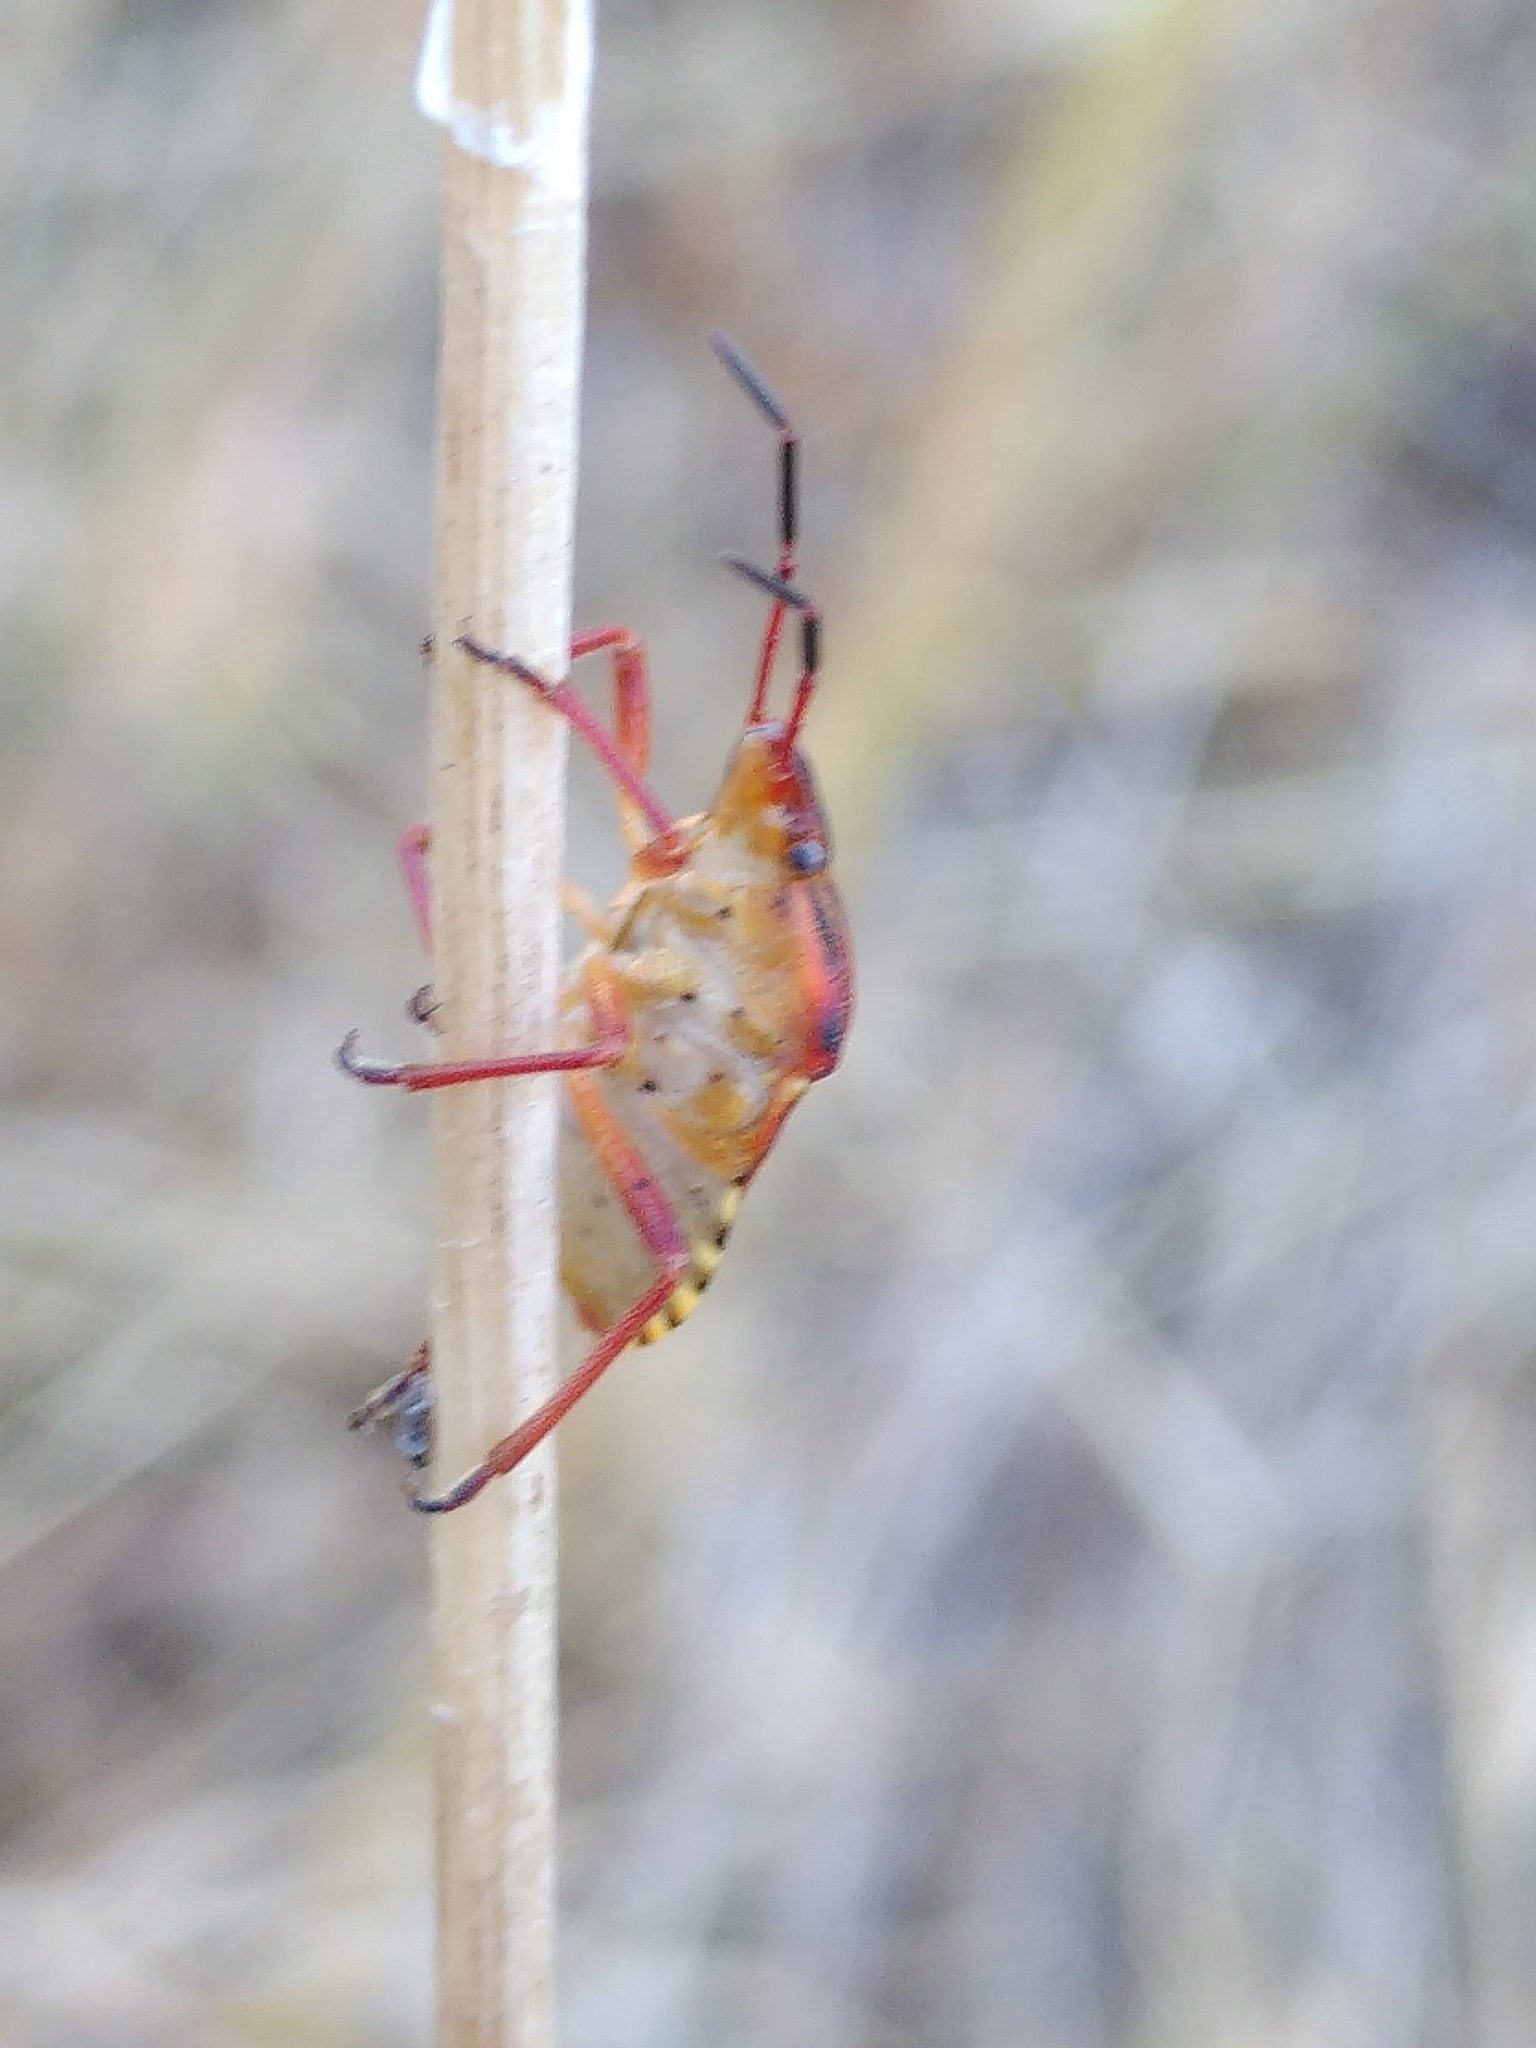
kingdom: Animalia
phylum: Arthropoda
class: Insecta
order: Hemiptera
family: Miridae
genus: Orthops
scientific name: Orthops kalmii
